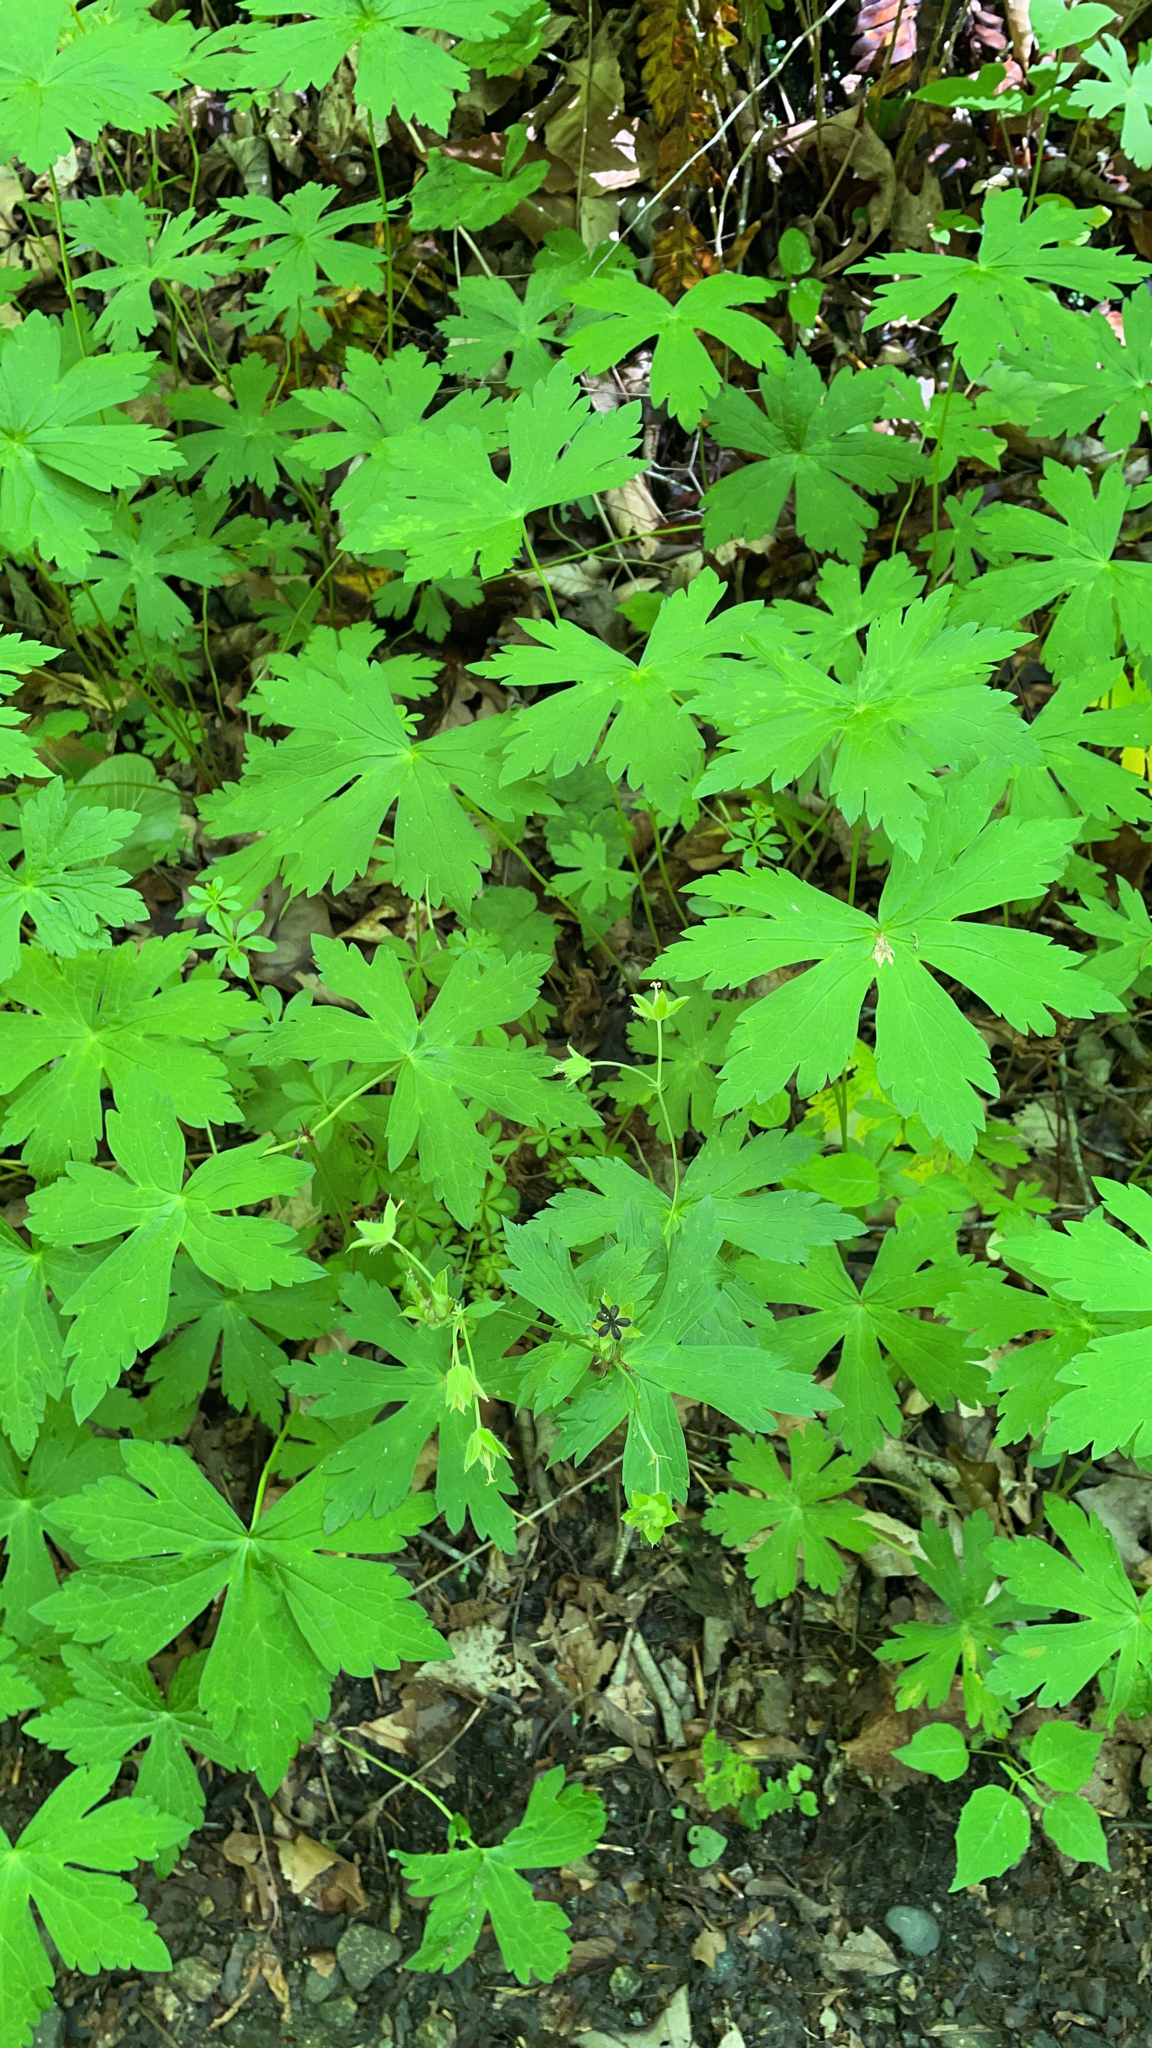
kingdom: Plantae
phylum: Tracheophyta
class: Magnoliopsida
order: Geraniales
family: Geraniaceae
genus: Geranium
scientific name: Geranium maculatum
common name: Spotted geranium
